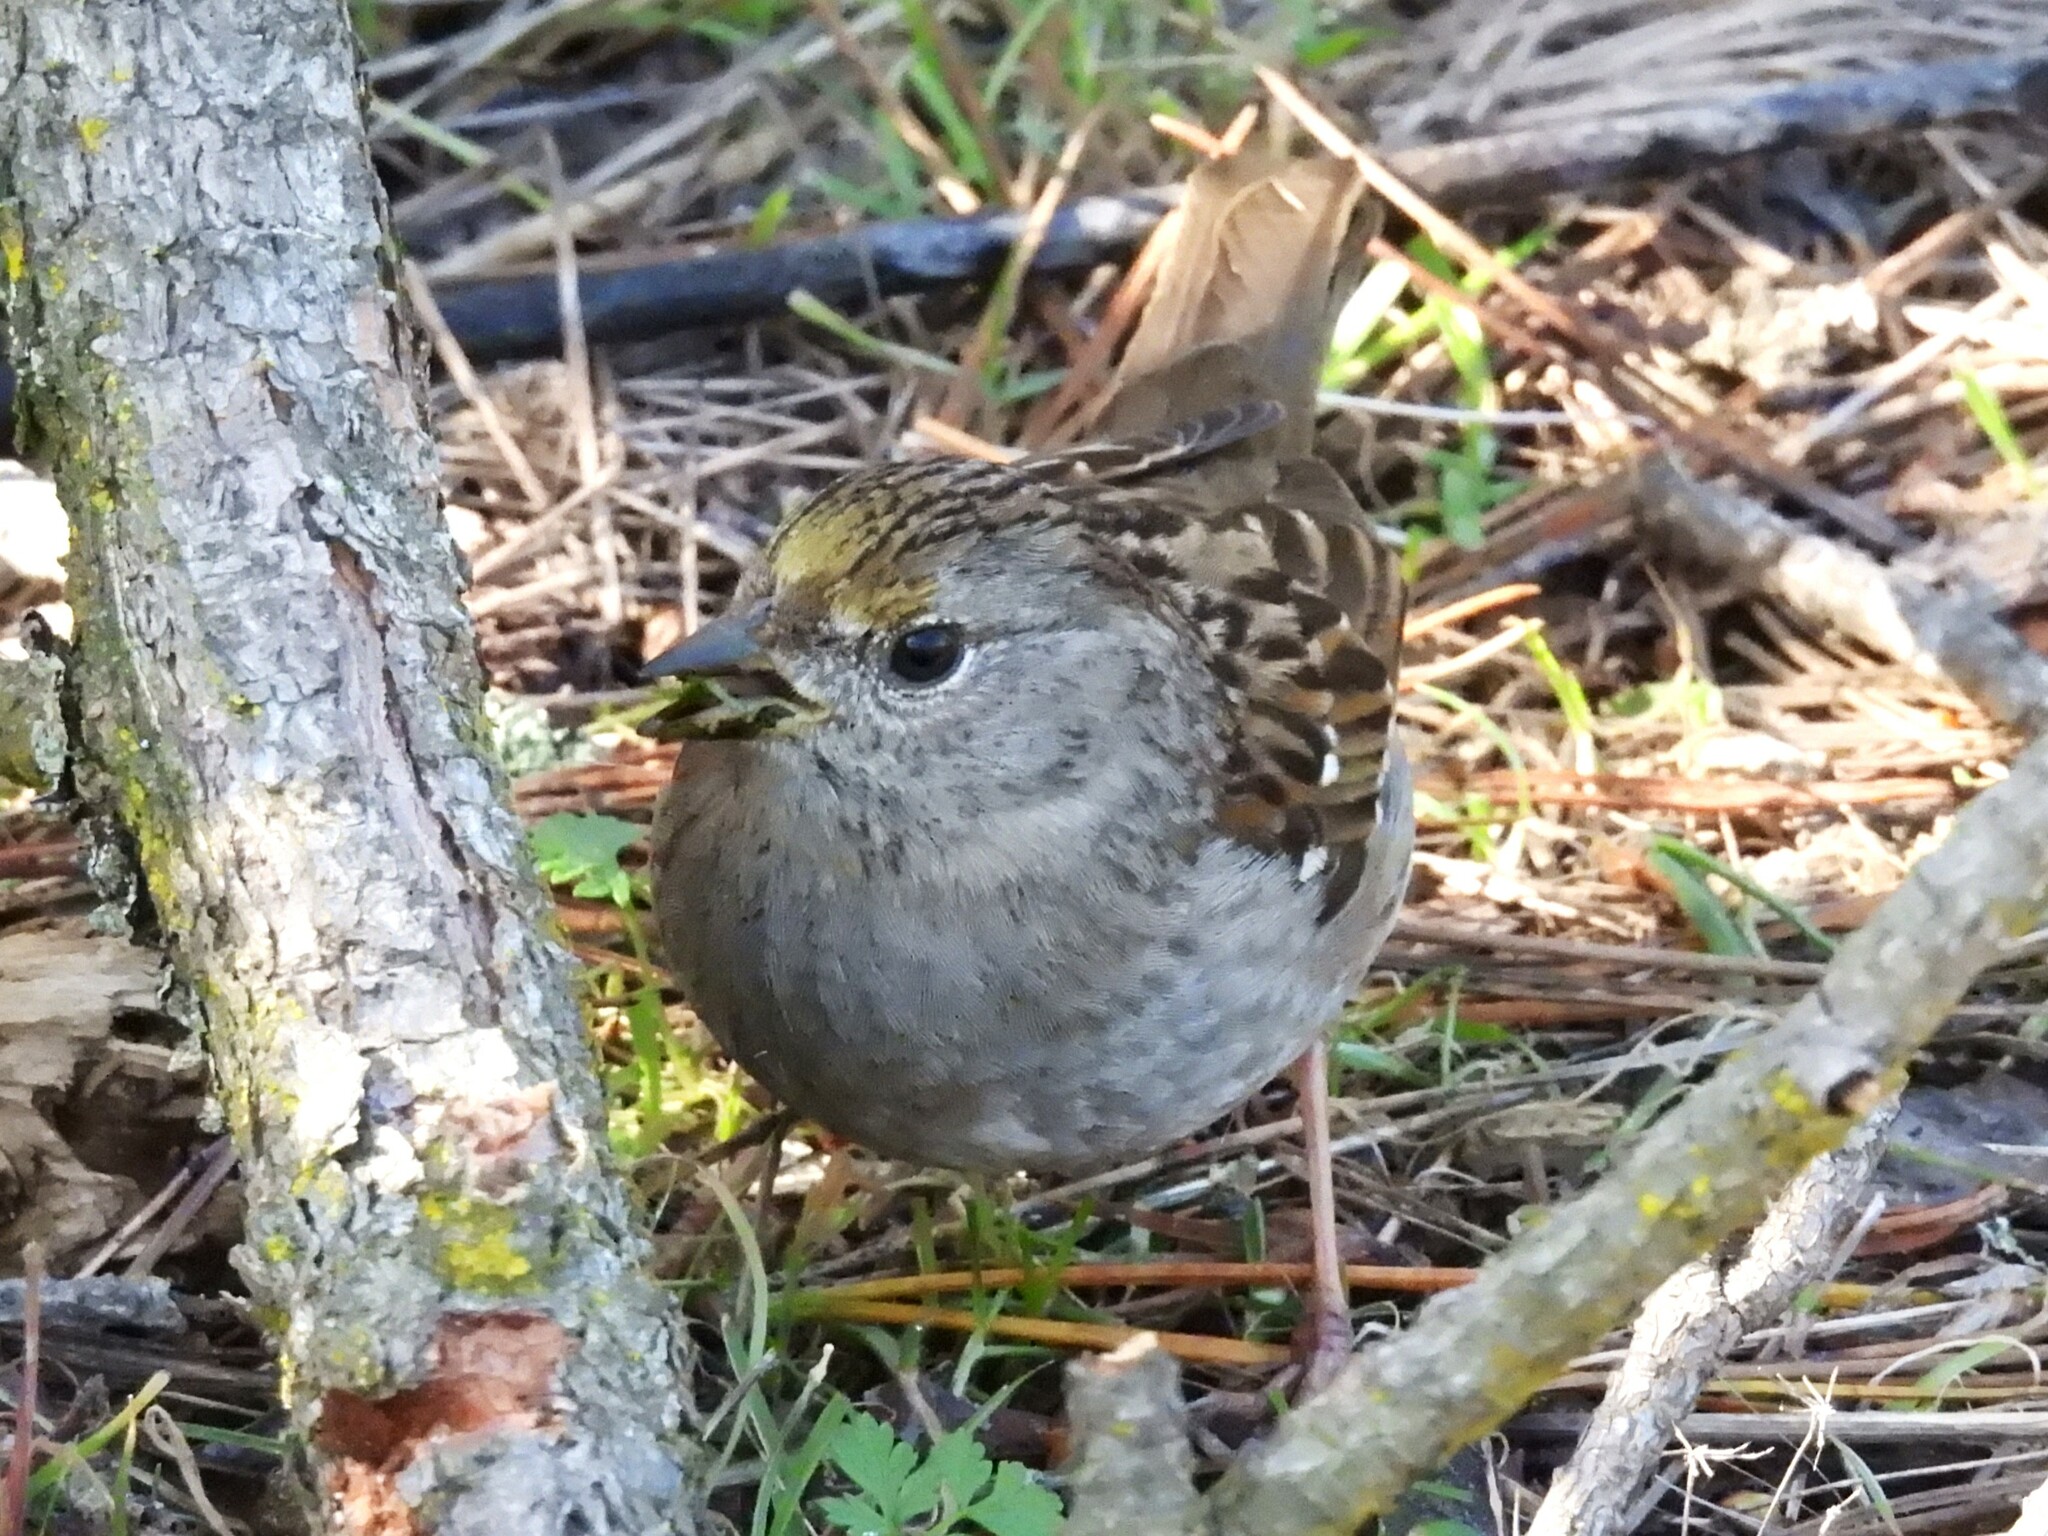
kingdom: Animalia
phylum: Chordata
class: Aves
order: Passeriformes
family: Passerellidae
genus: Zonotrichia
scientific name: Zonotrichia atricapilla
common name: Golden-crowned sparrow
